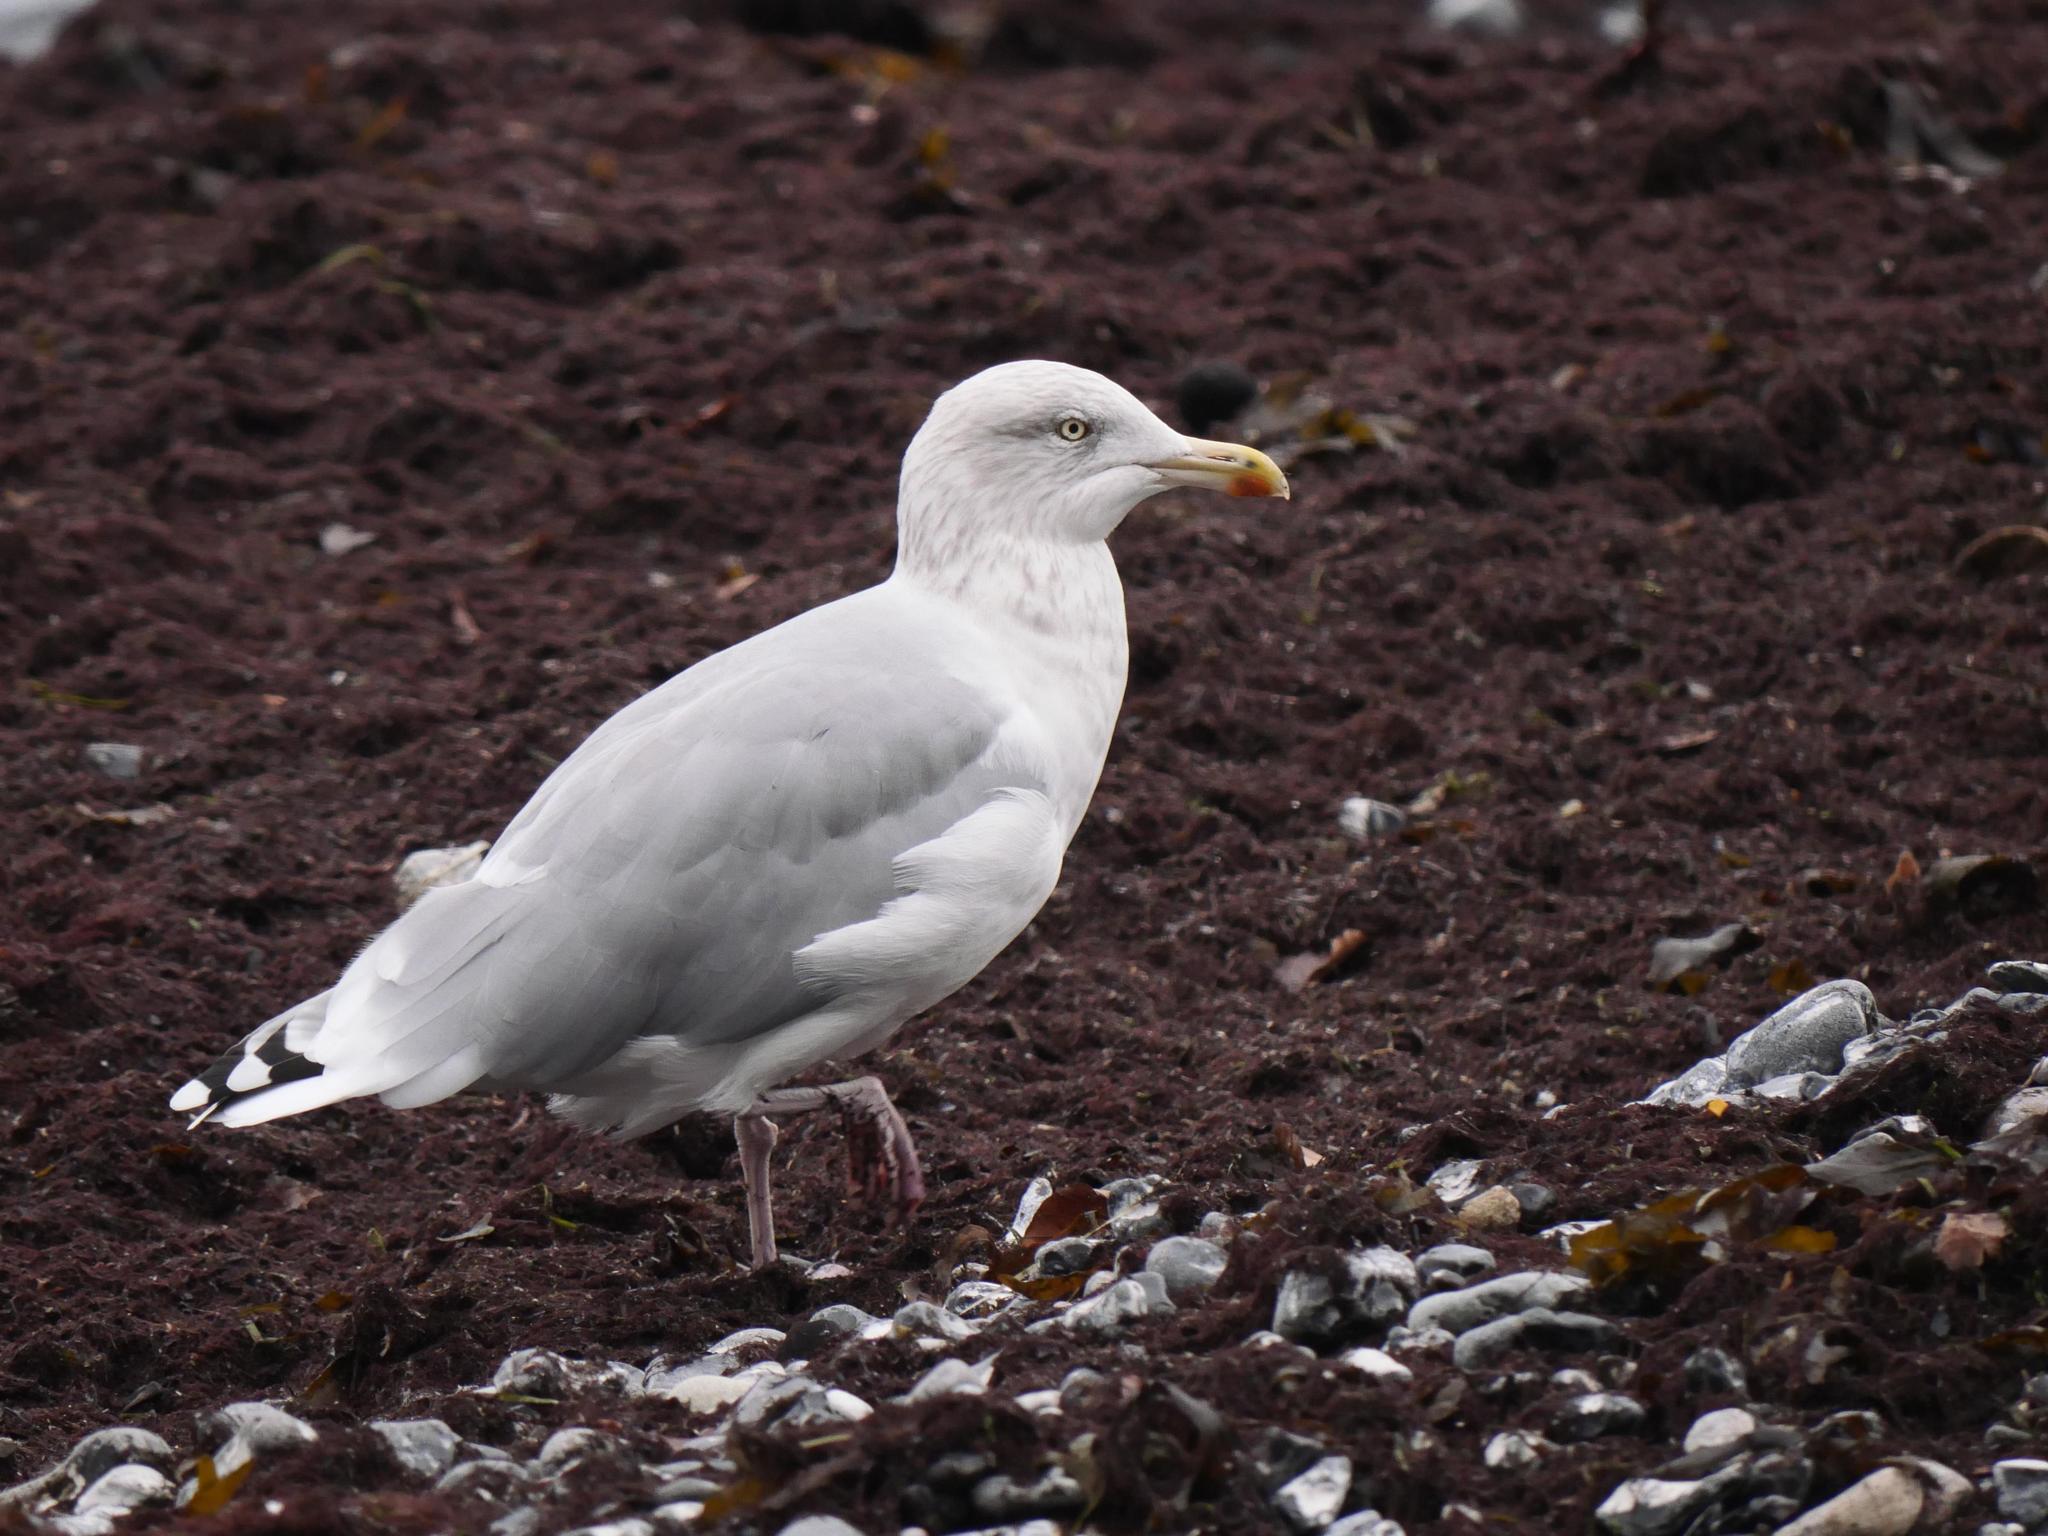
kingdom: Animalia
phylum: Chordata
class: Aves
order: Charadriiformes
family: Laridae
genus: Larus
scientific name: Larus argentatus
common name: Herring gull
